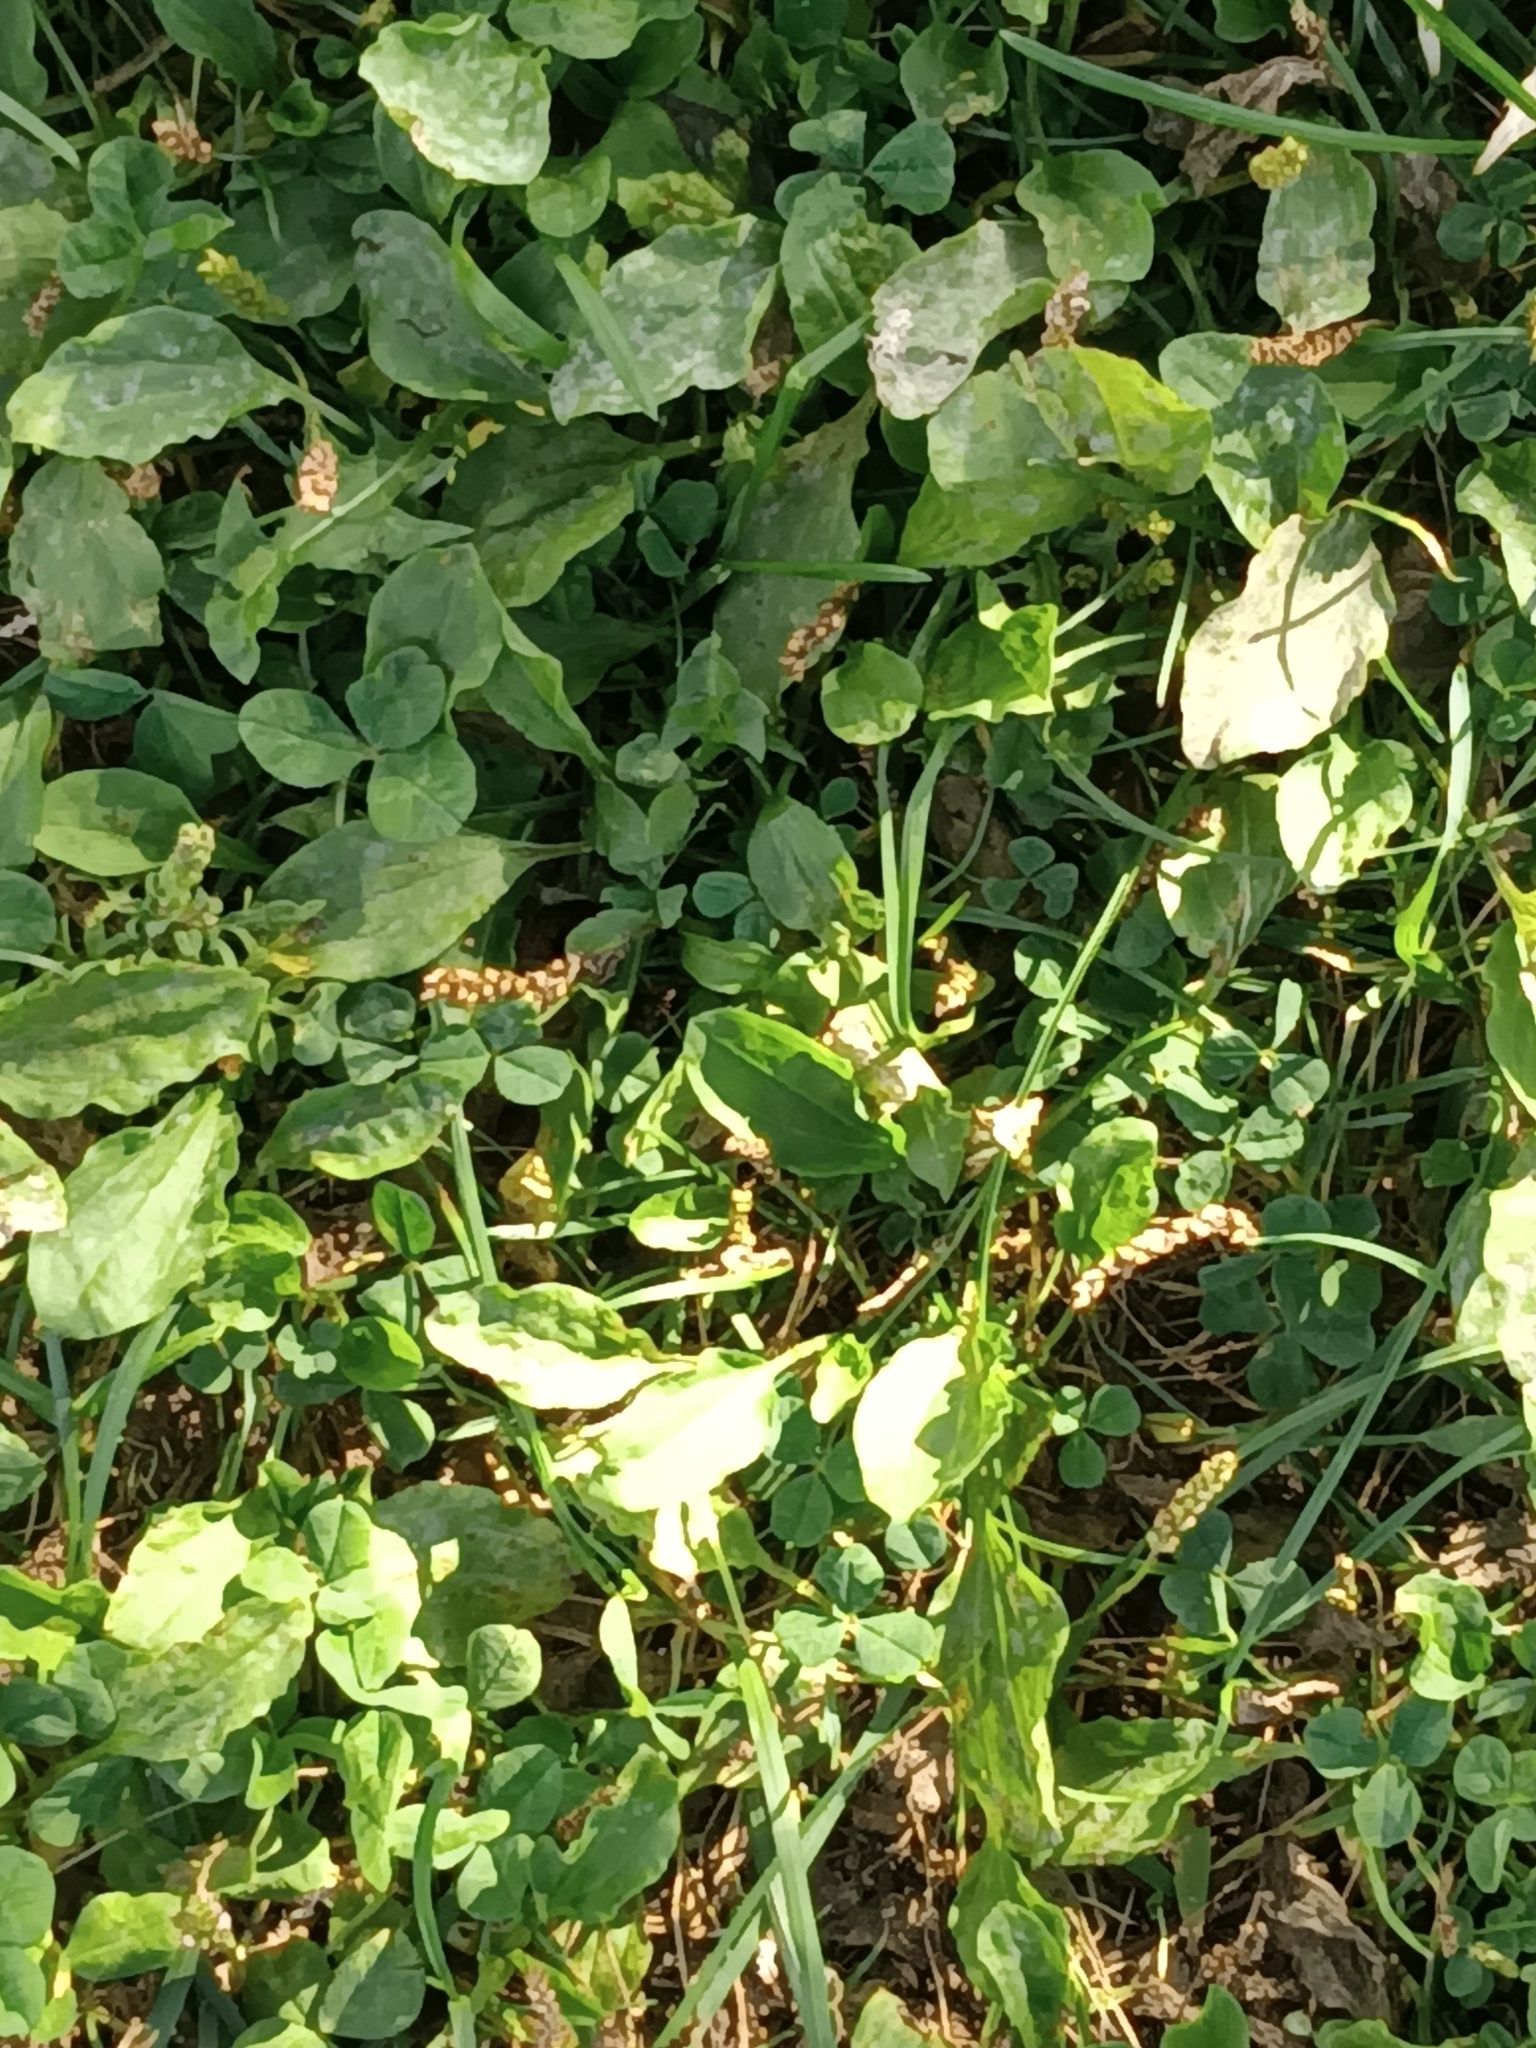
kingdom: Plantae
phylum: Tracheophyta
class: Magnoliopsida
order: Lamiales
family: Plantaginaceae
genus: Plantago
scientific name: Plantago major
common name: Common plantain
